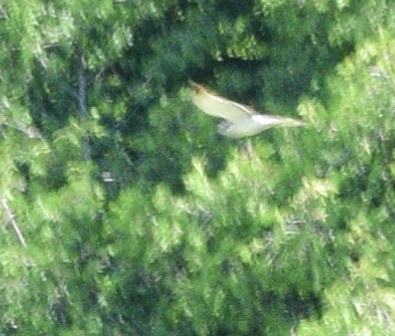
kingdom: Animalia
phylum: Chordata
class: Aves
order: Accipitriformes
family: Accipitridae
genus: Circus
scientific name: Circus cyaneus
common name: Hen harrier
